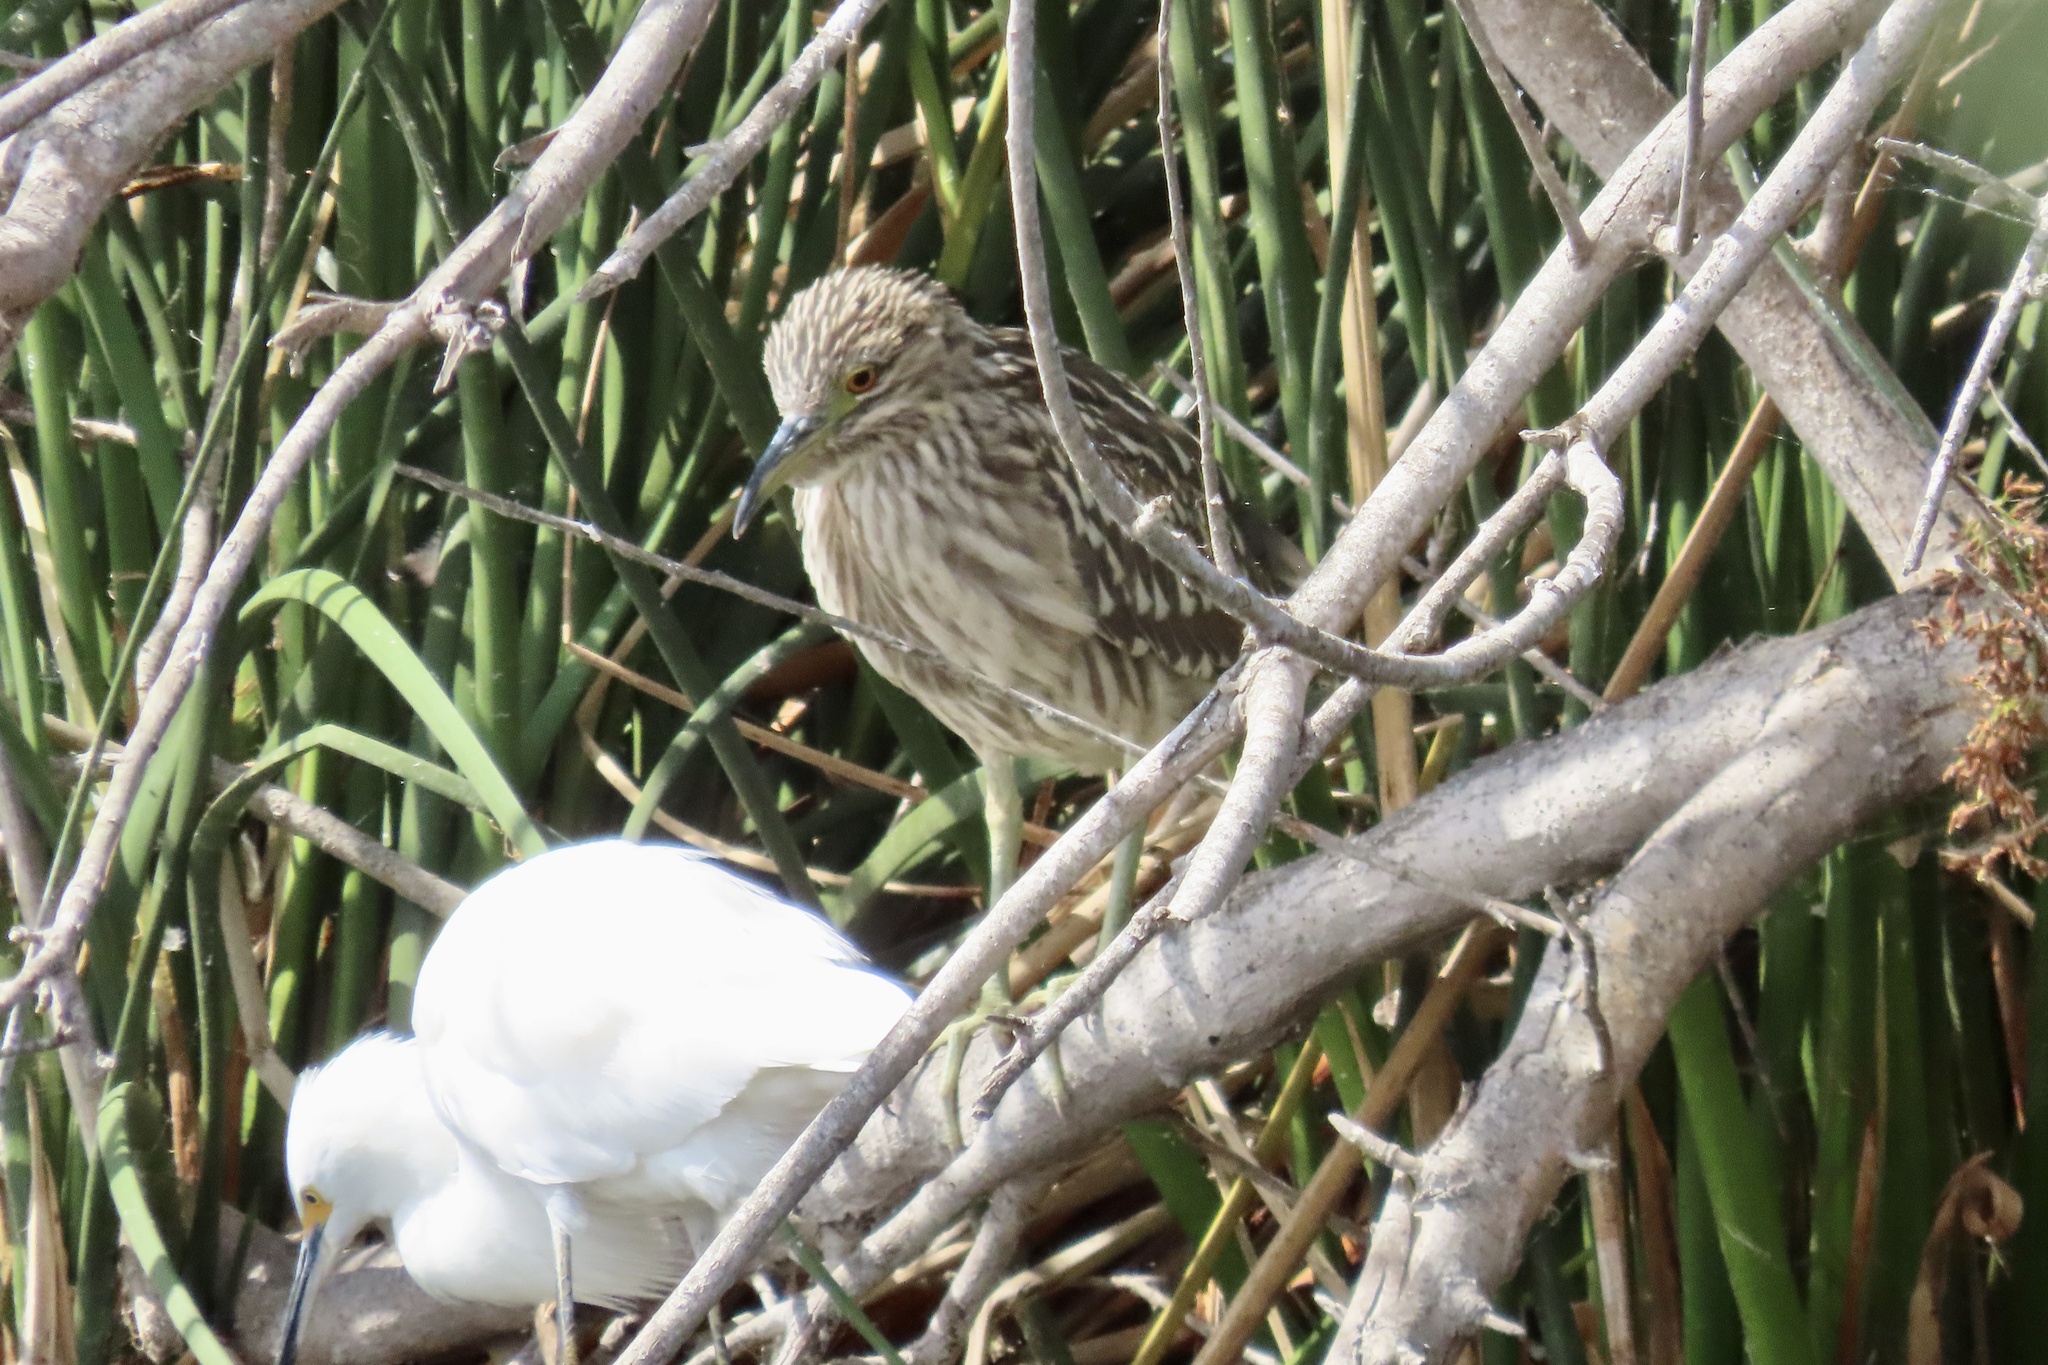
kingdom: Animalia
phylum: Chordata
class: Aves
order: Pelecaniformes
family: Ardeidae
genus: Nycticorax
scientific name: Nycticorax nycticorax
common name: Black-crowned night heron
